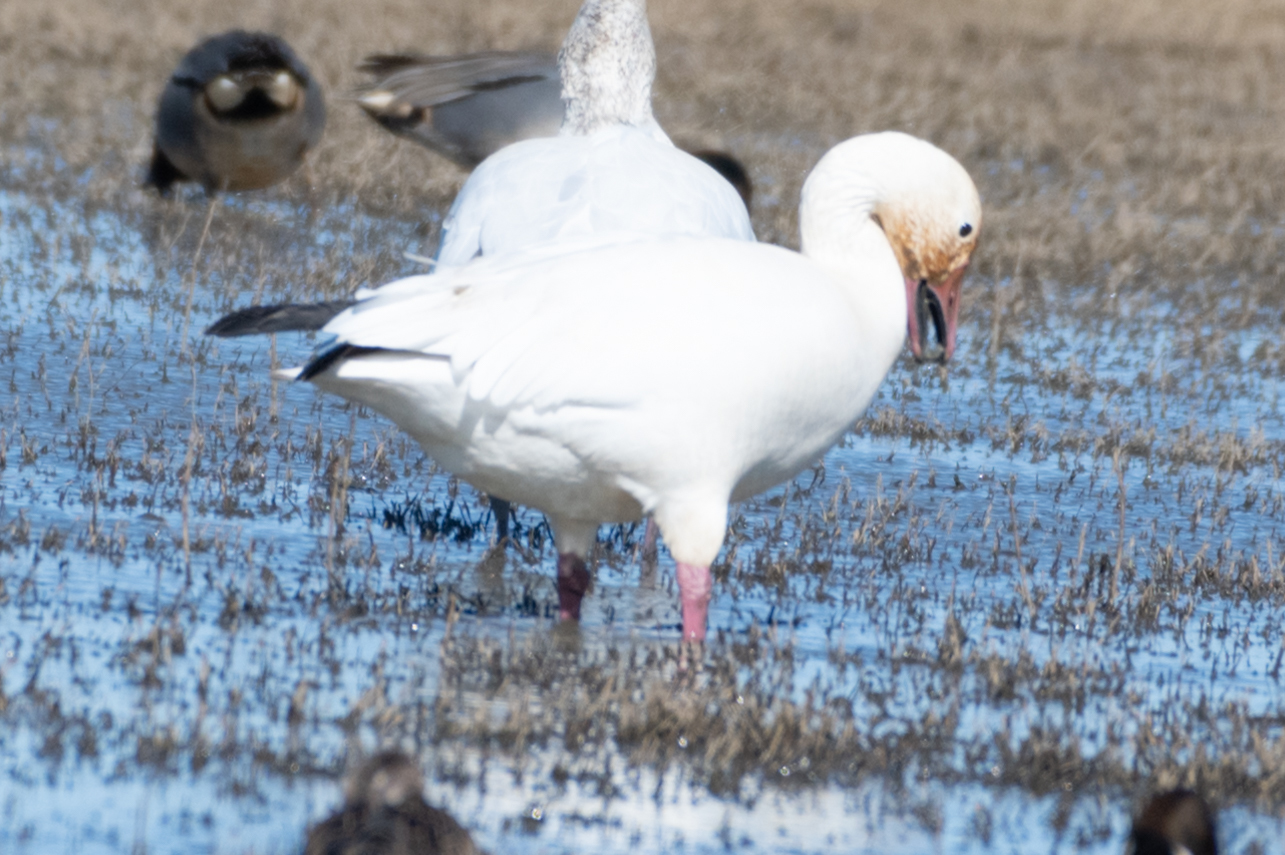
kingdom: Animalia
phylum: Chordata
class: Aves
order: Anseriformes
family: Anatidae
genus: Anser
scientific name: Anser caerulescens
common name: Snow goose
